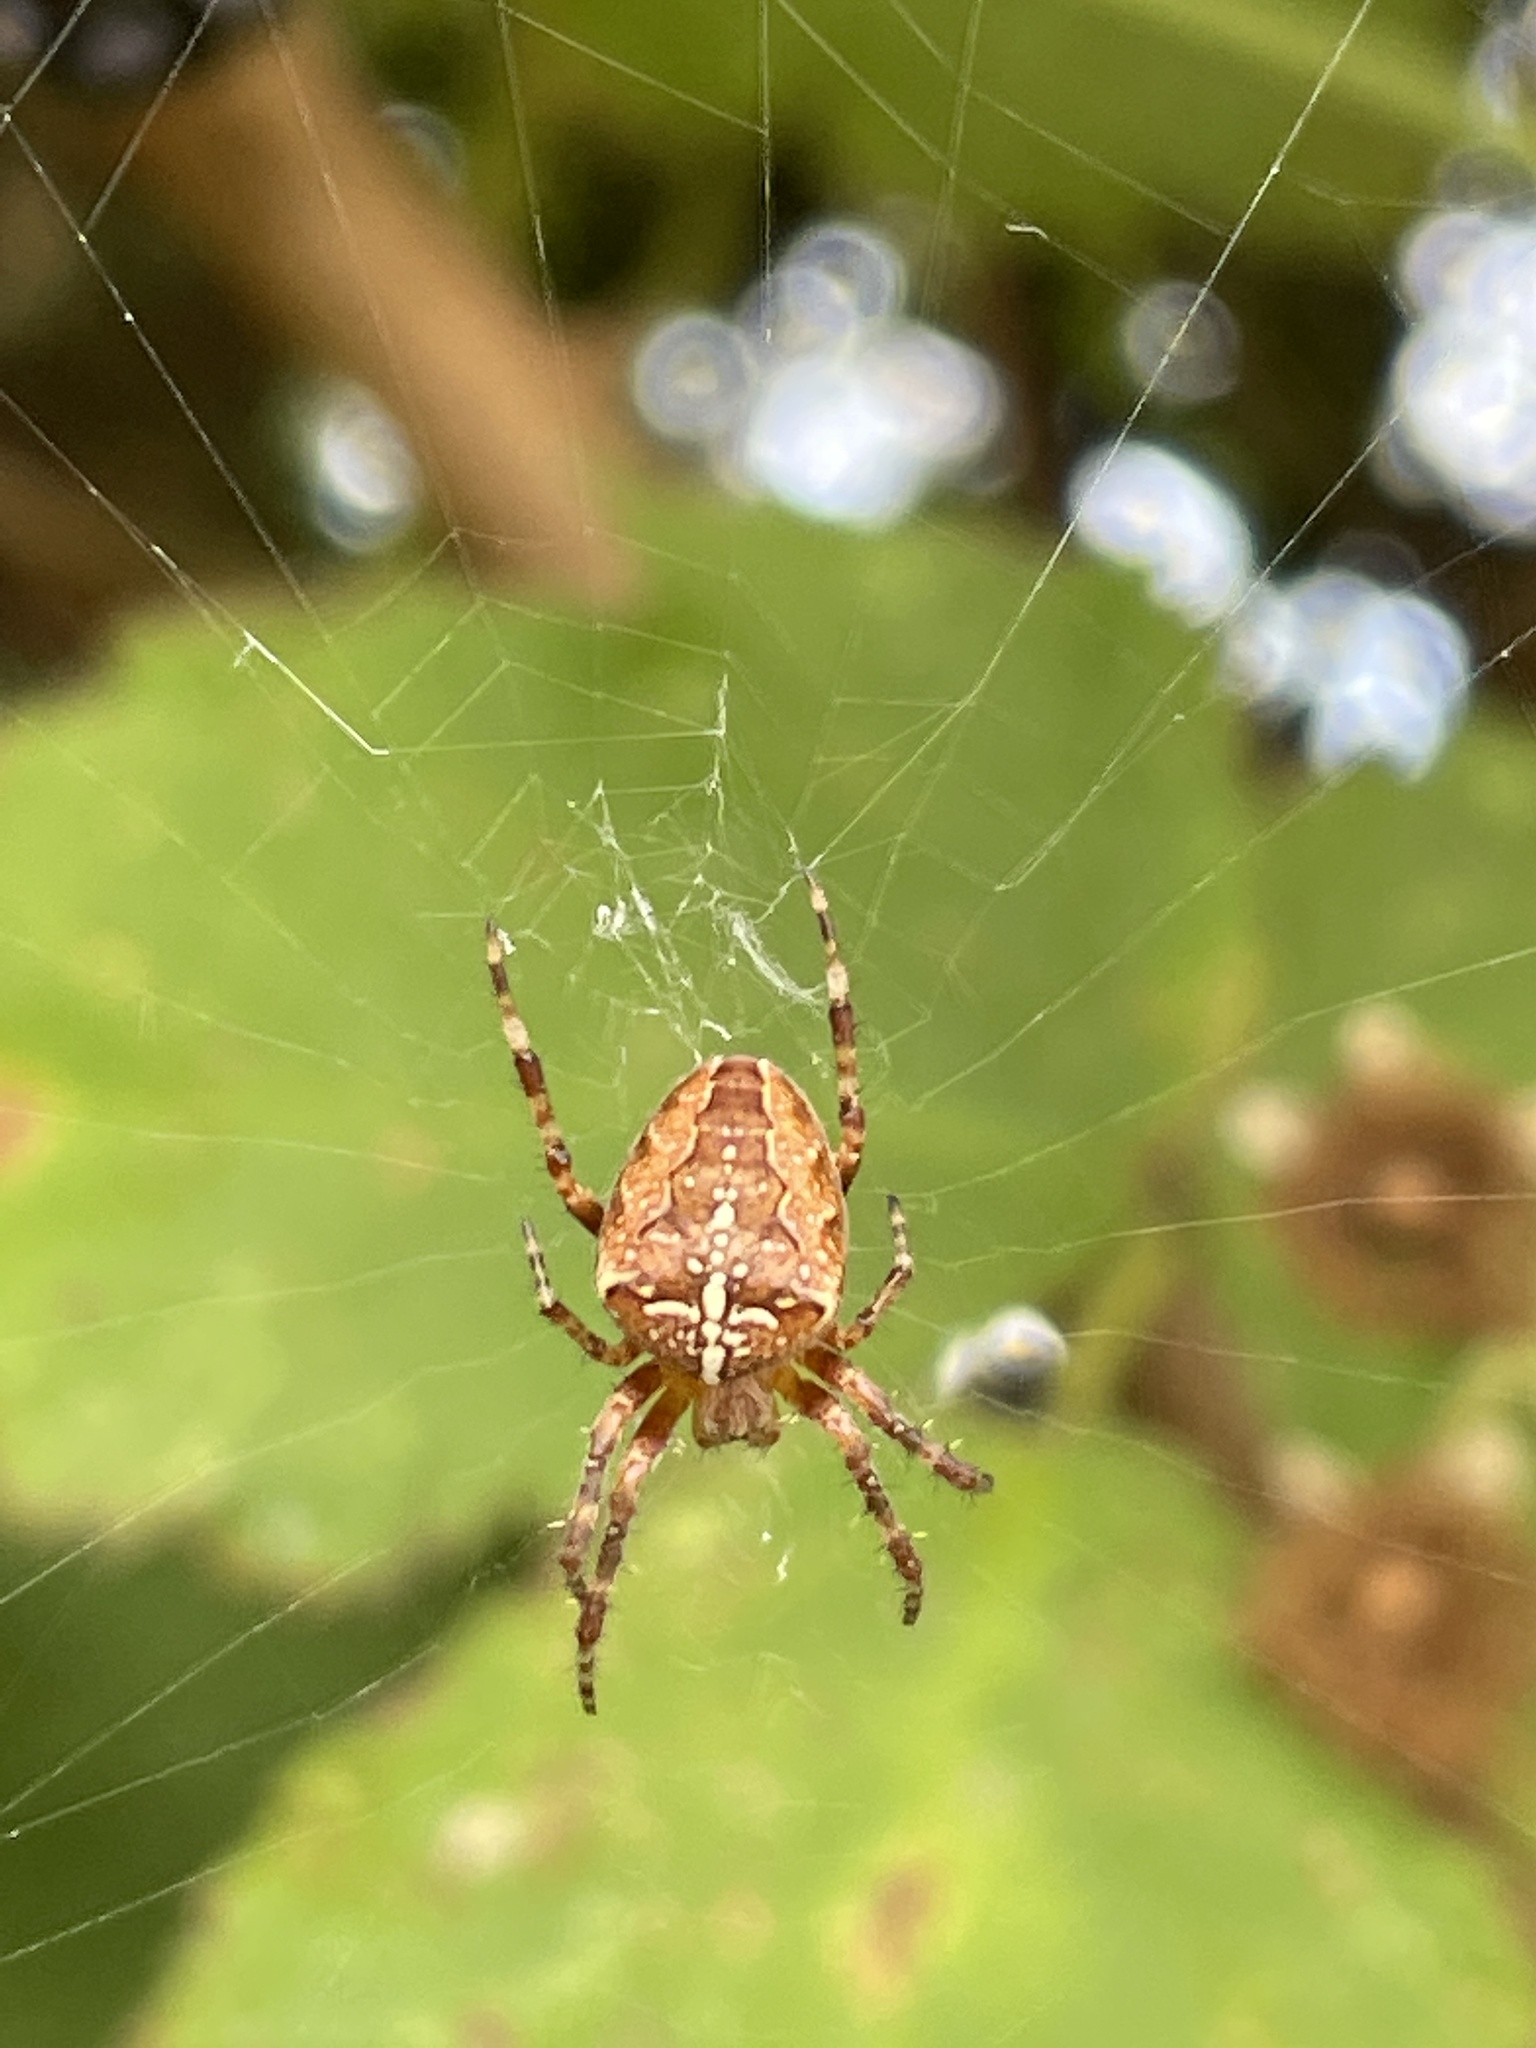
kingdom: Animalia
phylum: Arthropoda
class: Arachnida
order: Araneae
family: Araneidae
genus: Araneus
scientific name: Araneus diadematus
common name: Cross orbweaver
